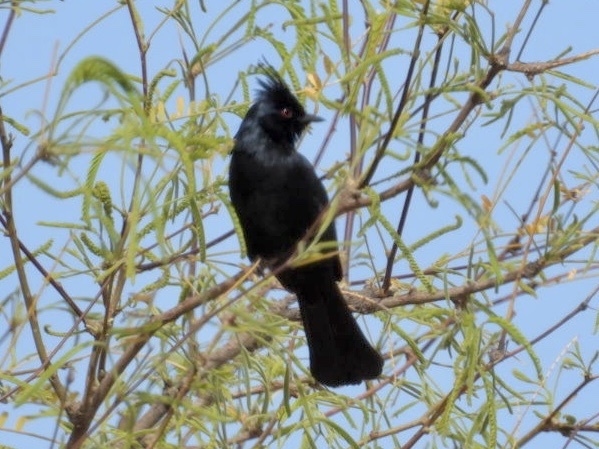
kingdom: Animalia
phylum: Chordata
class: Aves
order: Passeriformes
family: Ptilogonatidae
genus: Phainopepla
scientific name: Phainopepla nitens
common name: Phainopepla
